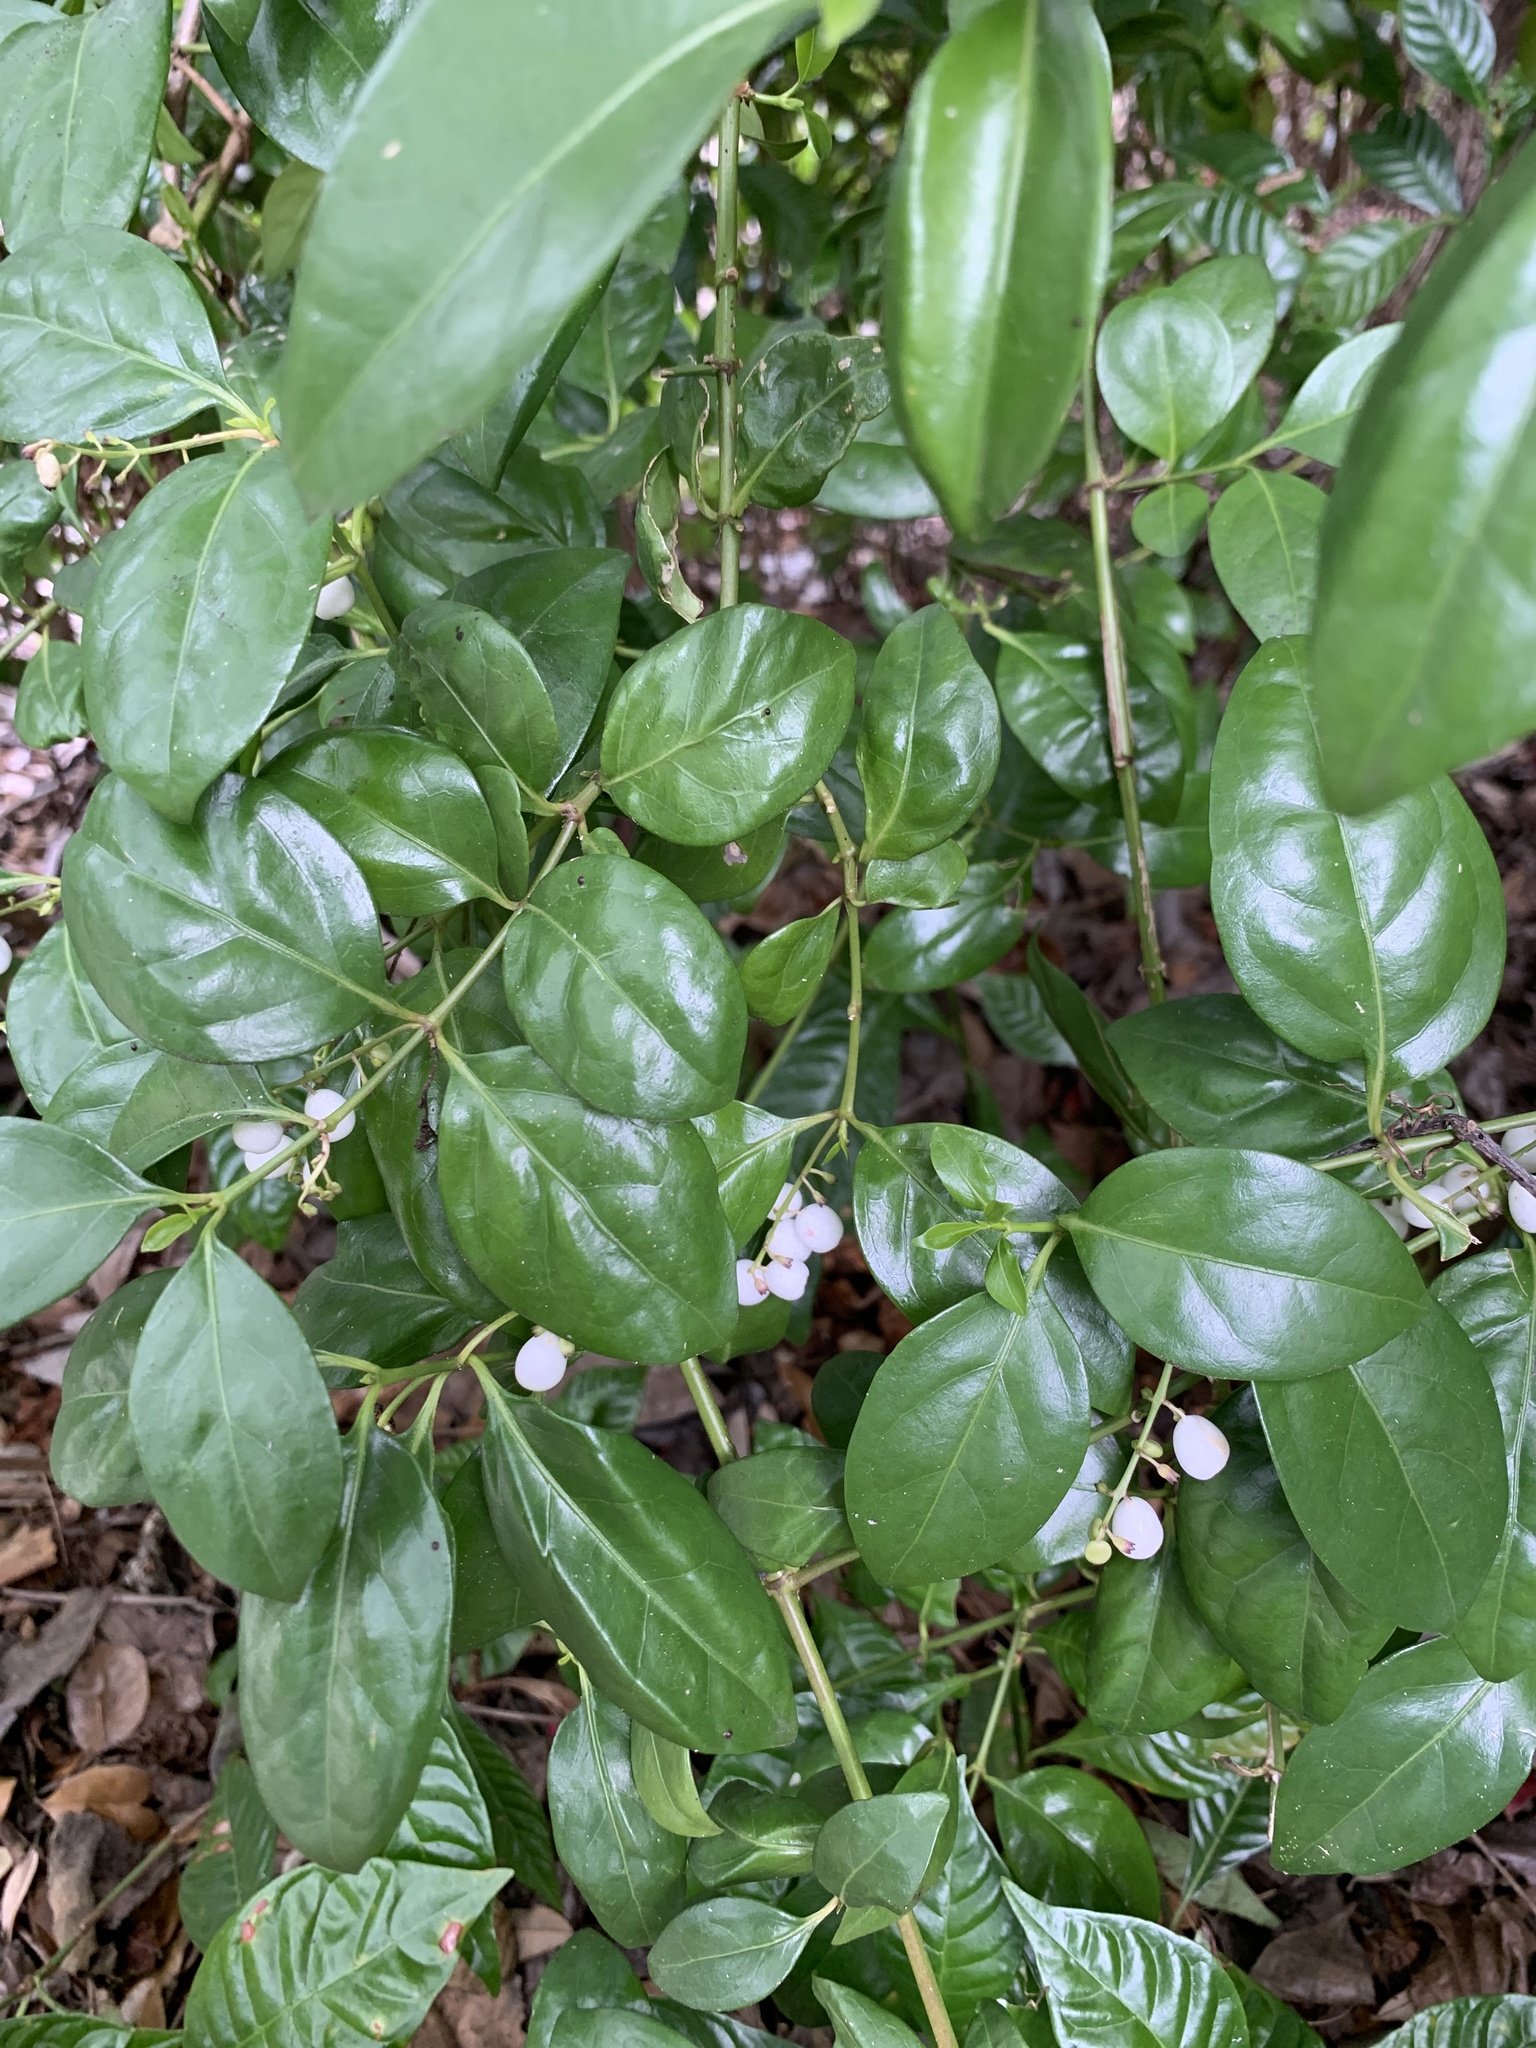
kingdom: Plantae
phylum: Tracheophyta
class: Magnoliopsida
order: Gentianales
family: Rubiaceae
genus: Chiococca
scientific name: Chiococca alba
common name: Snowberry
